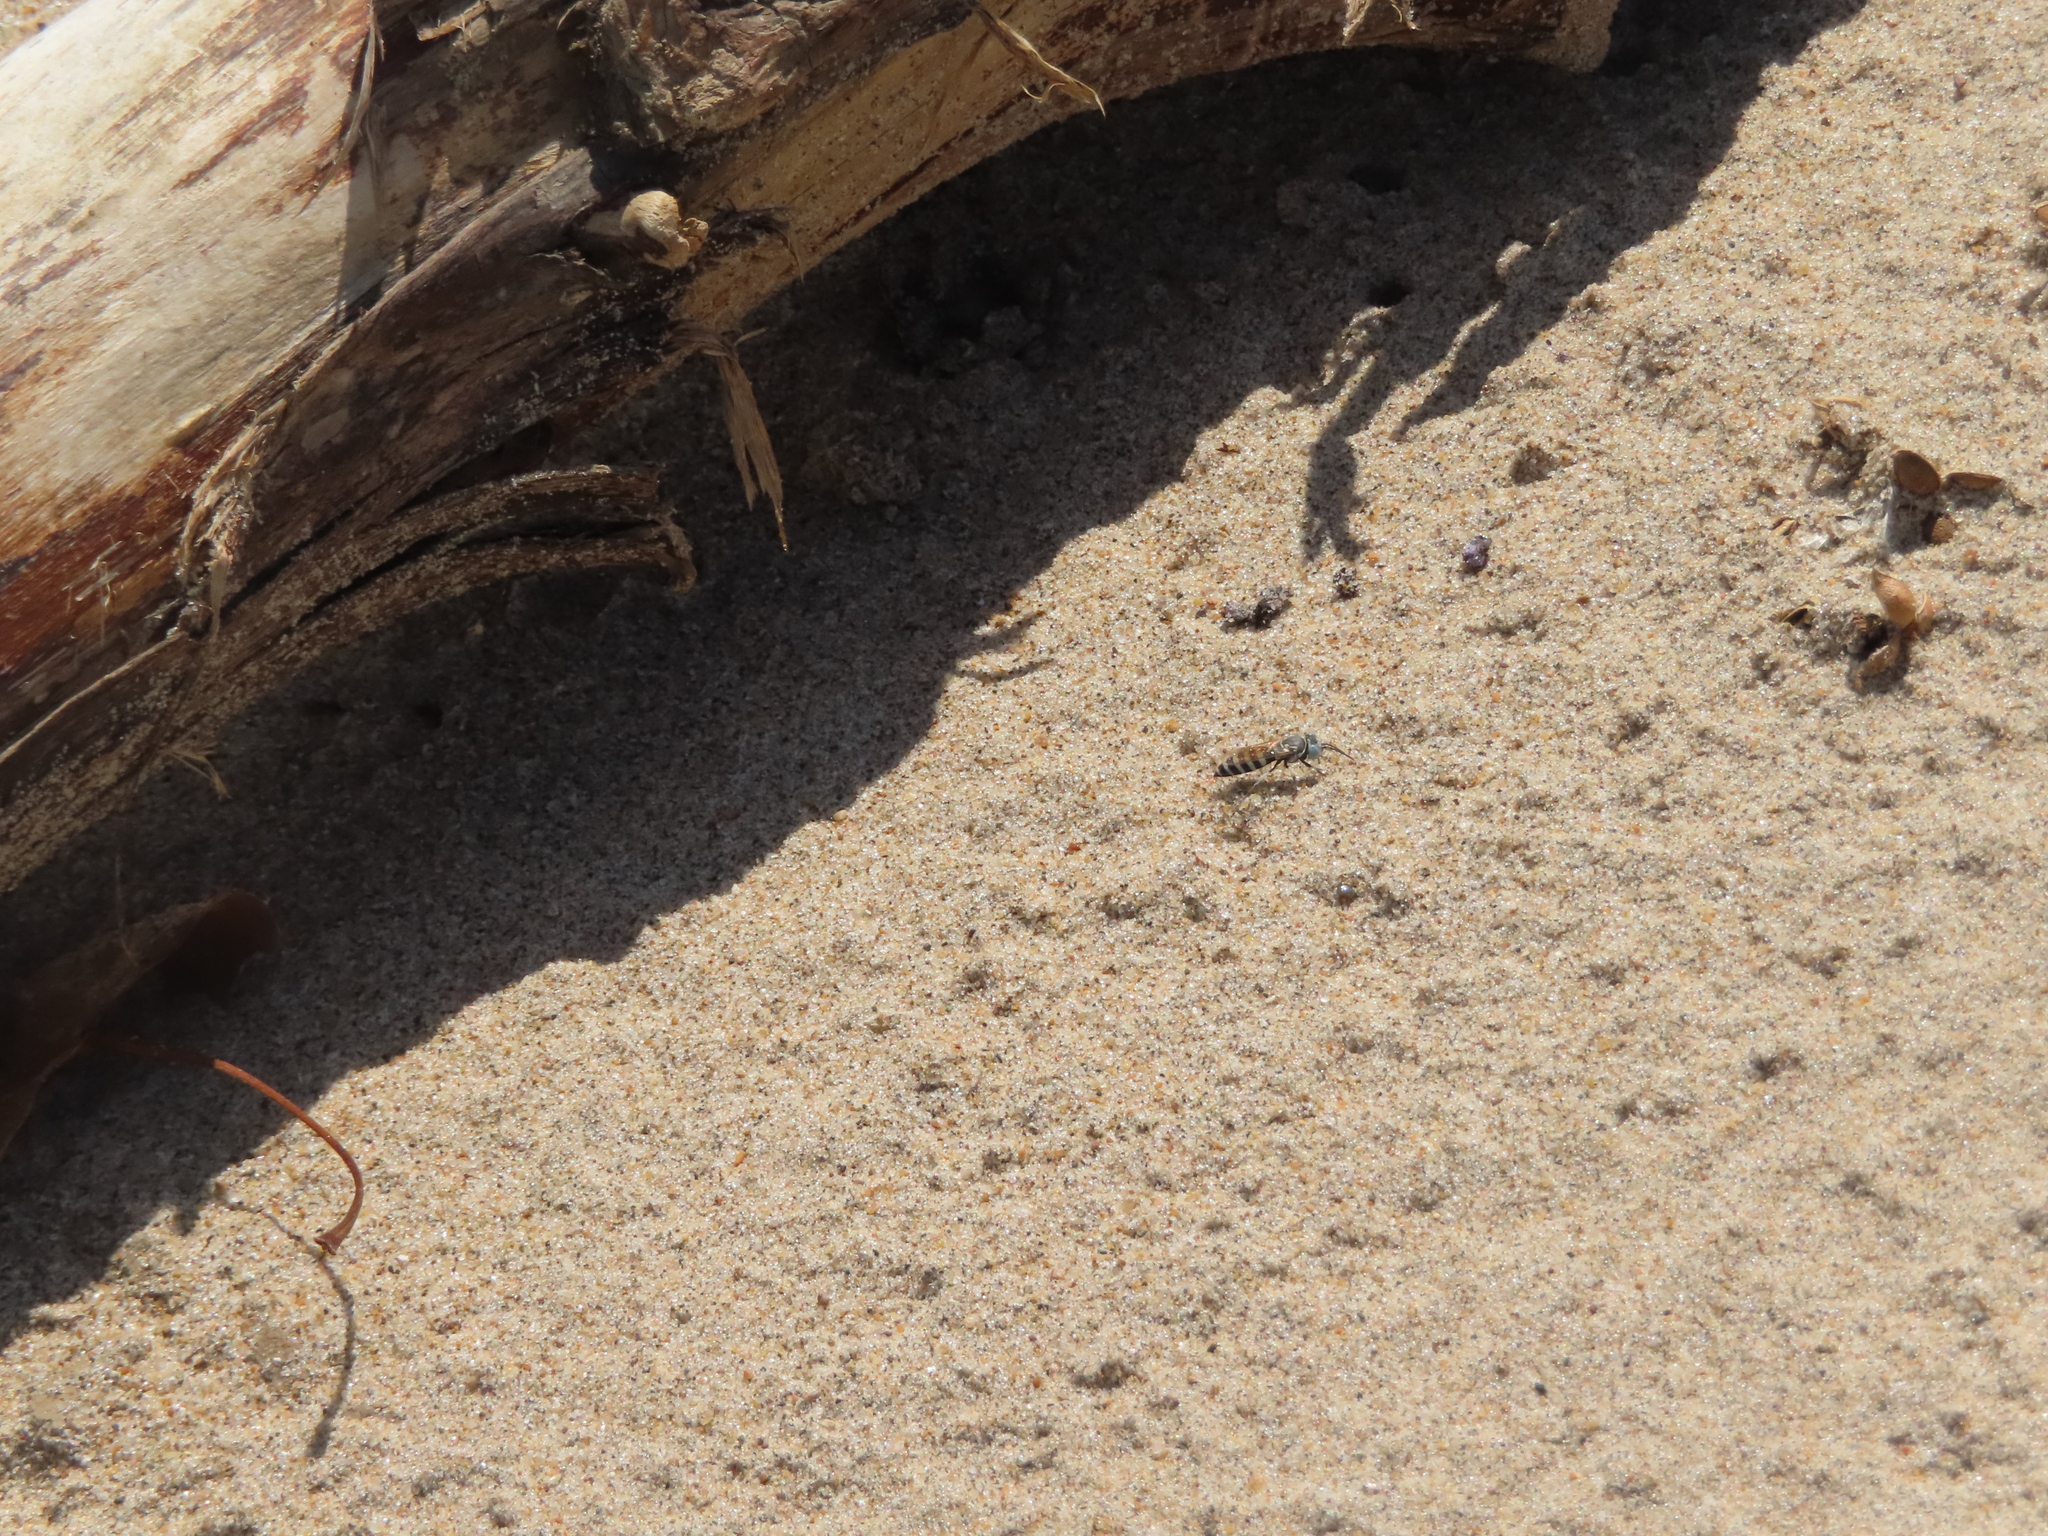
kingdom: Animalia
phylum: Arthropoda
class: Insecta
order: Hymenoptera
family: Crabronidae
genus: Microbembex
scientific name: Microbembex monodonta
